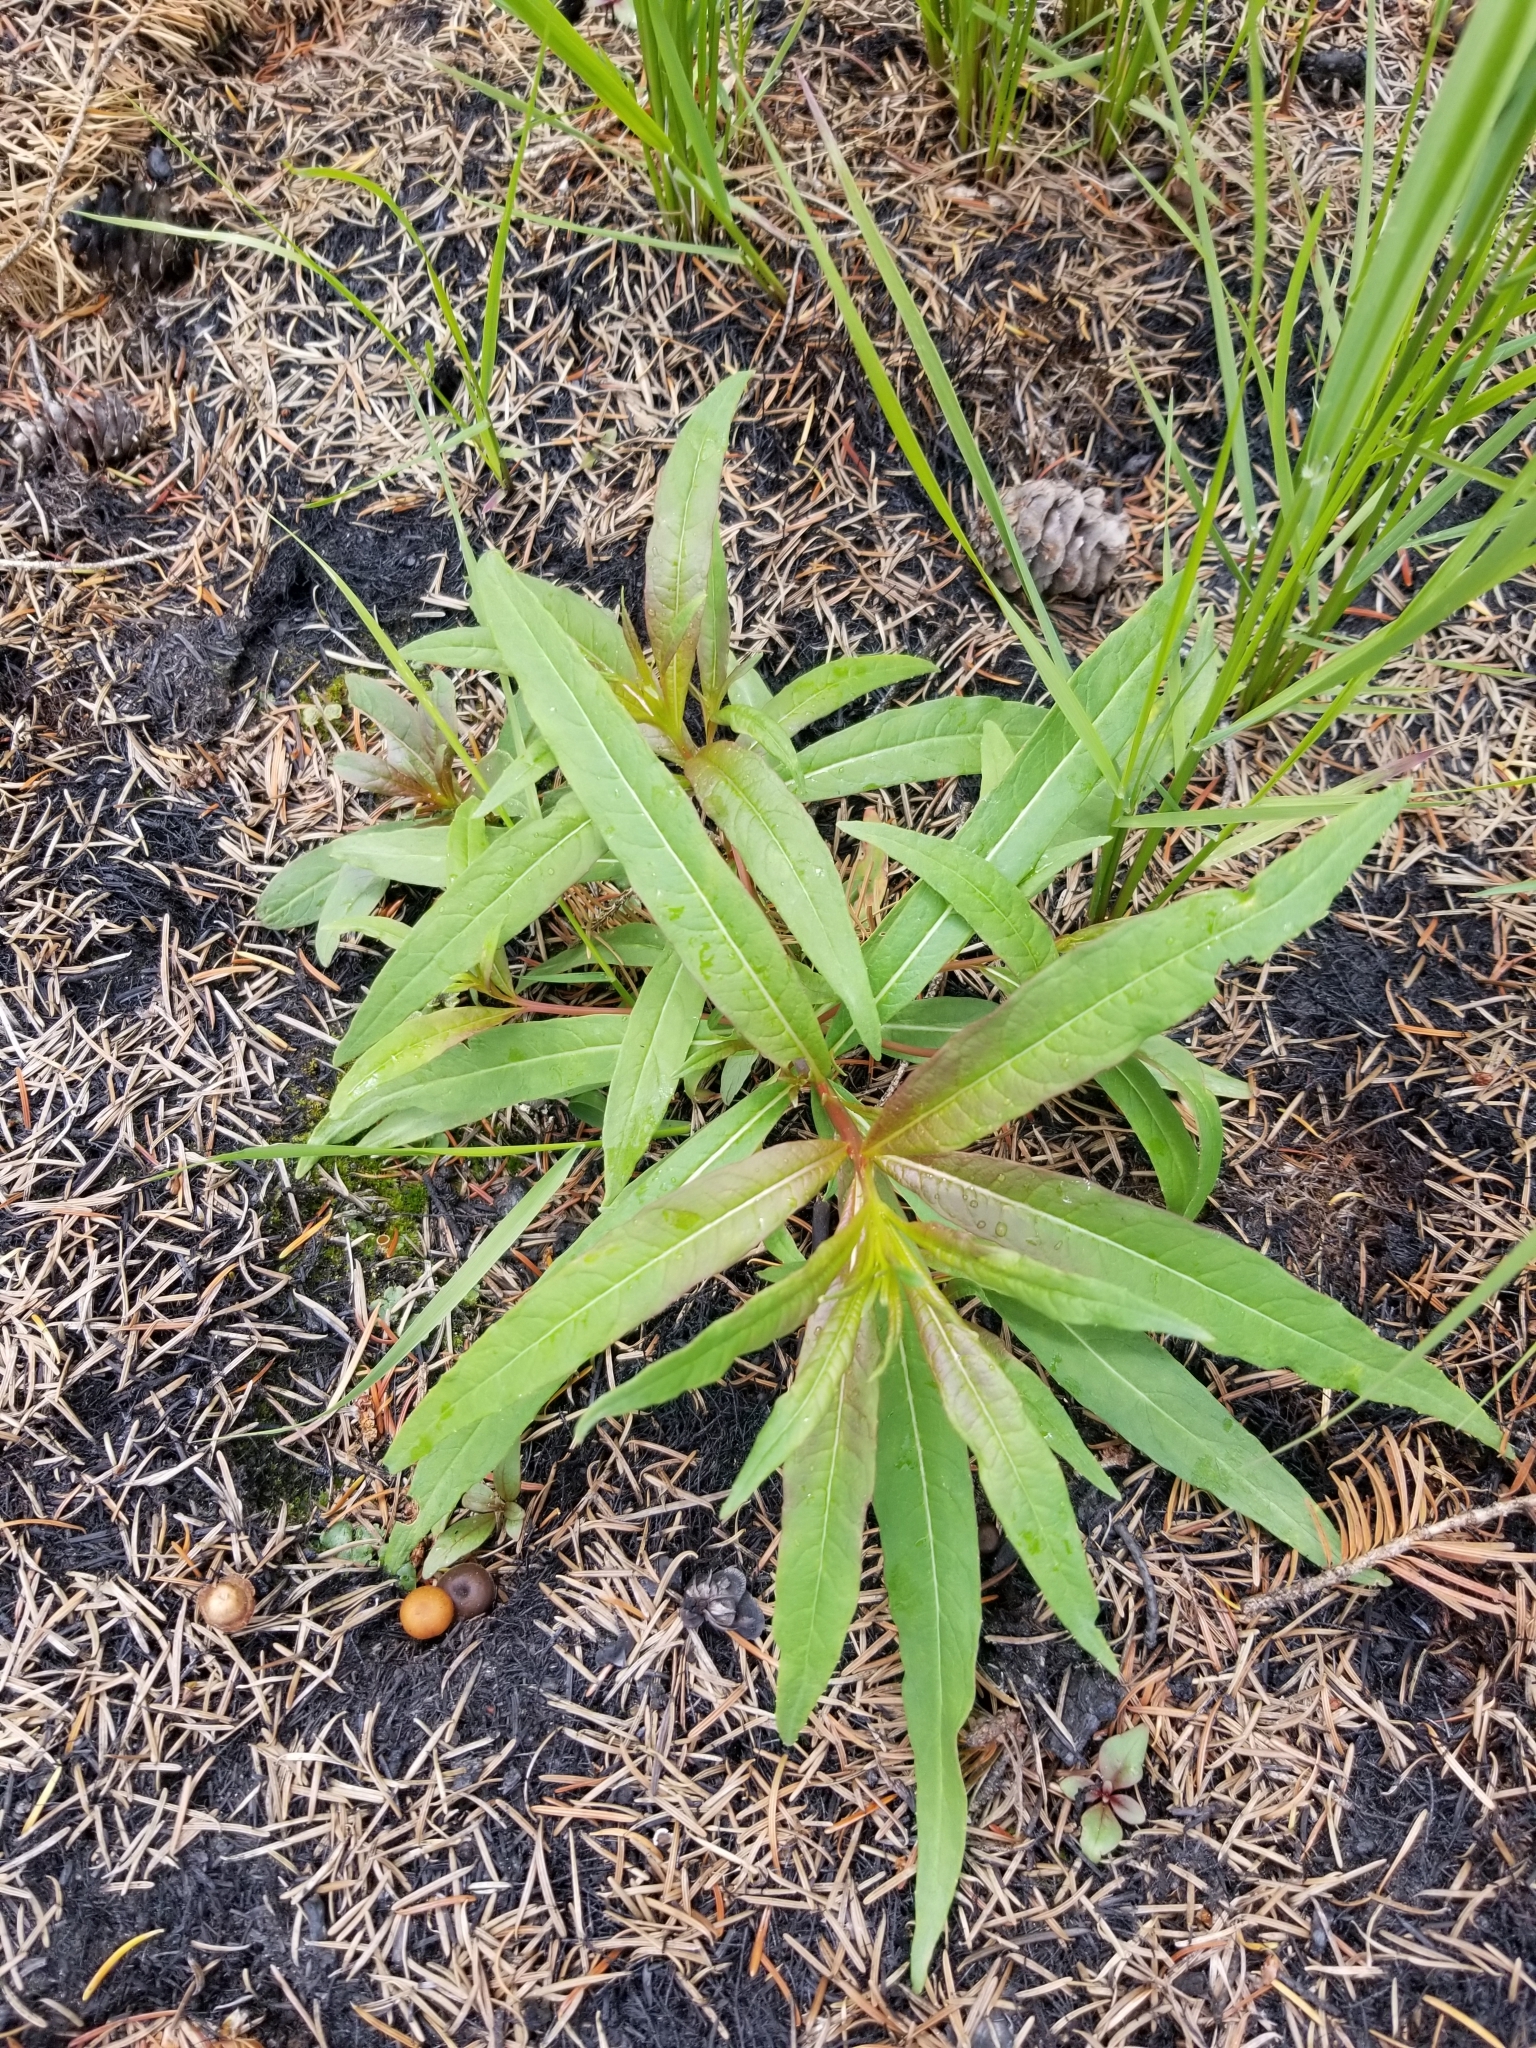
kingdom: Plantae
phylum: Tracheophyta
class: Magnoliopsida
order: Myrtales
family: Onagraceae
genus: Chamaenerion
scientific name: Chamaenerion angustifolium
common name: Fireweed
